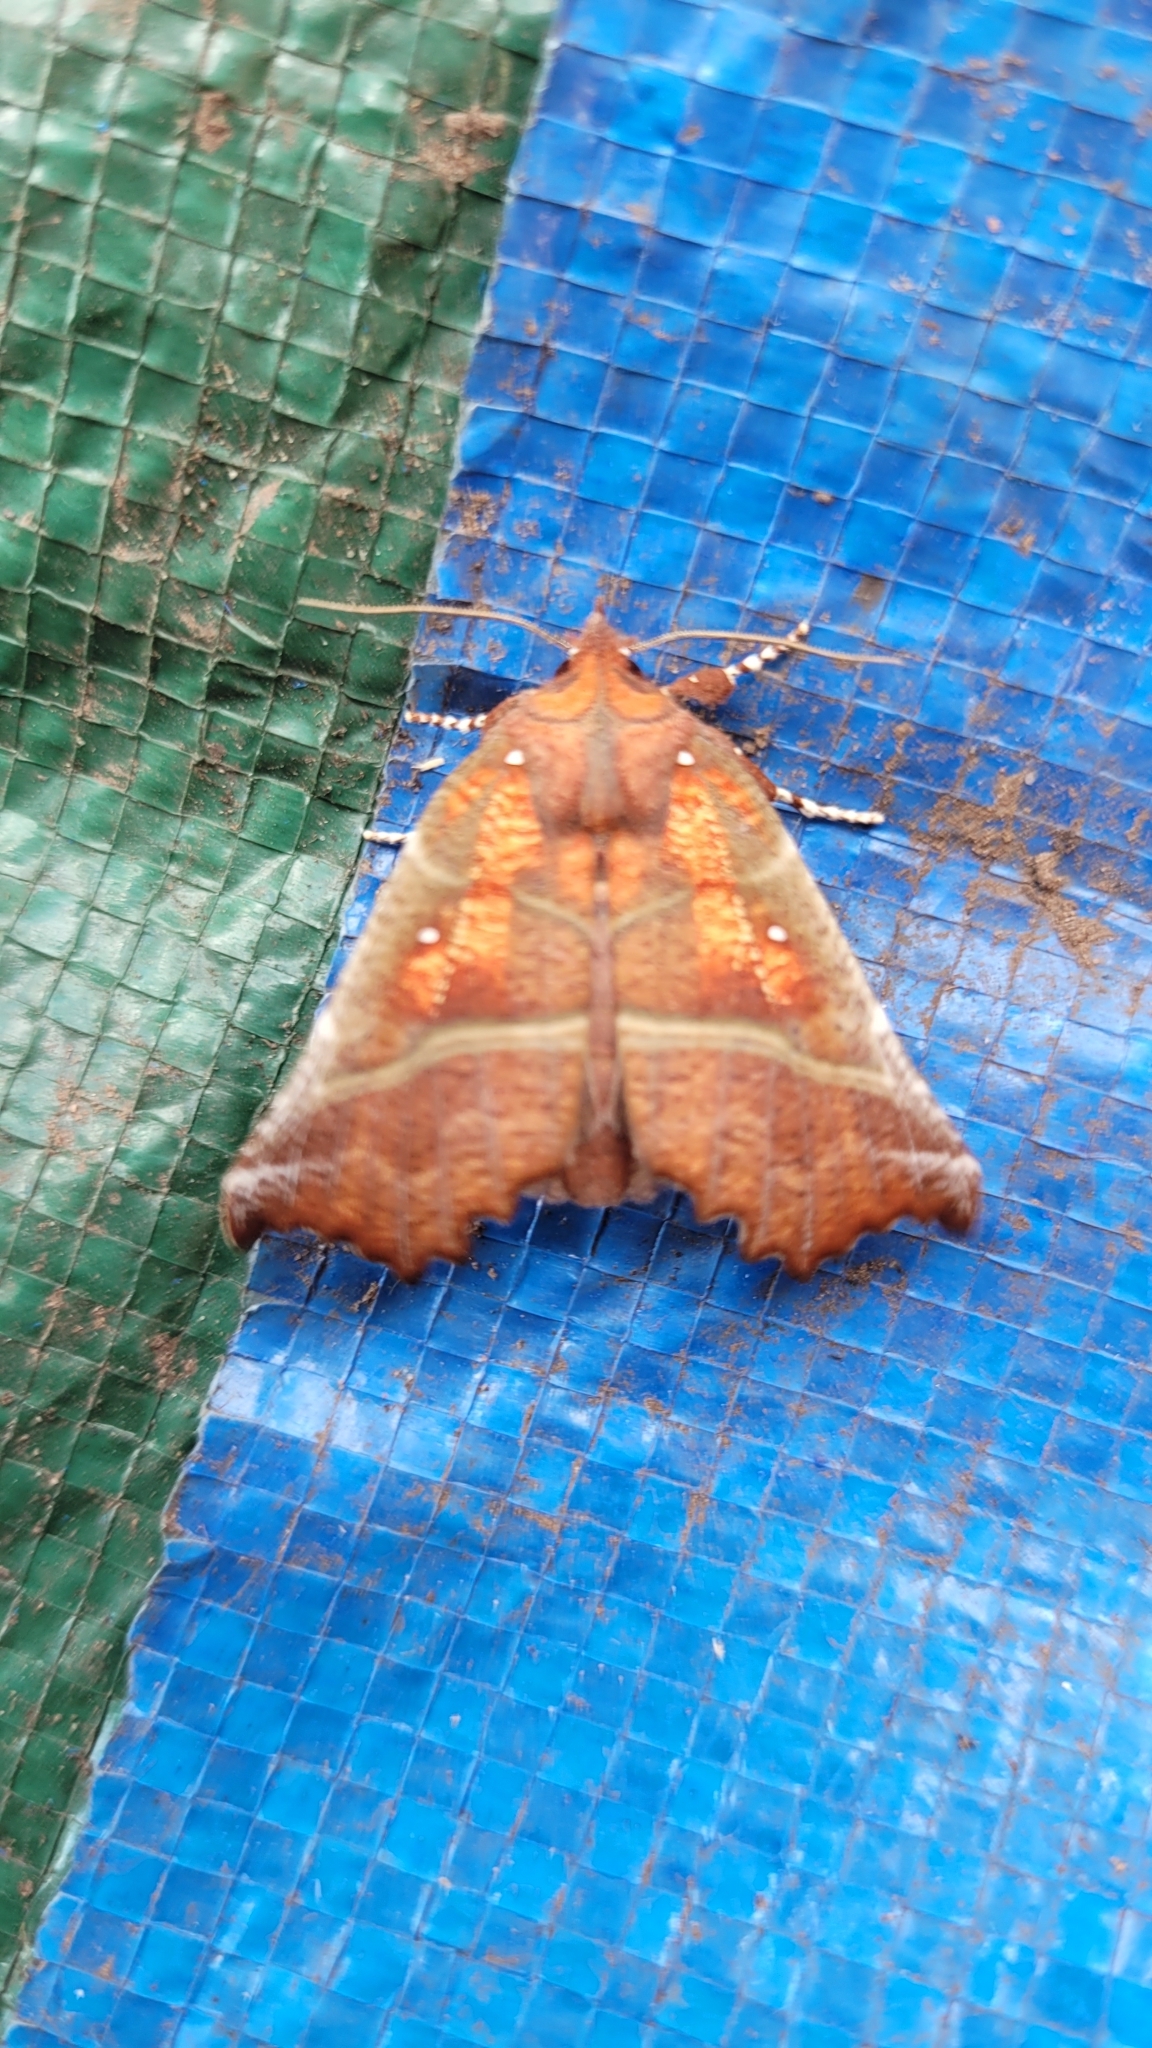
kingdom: Animalia
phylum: Arthropoda
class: Insecta
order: Lepidoptera
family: Erebidae
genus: Scoliopteryx
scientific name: Scoliopteryx libatrix
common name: Herald
